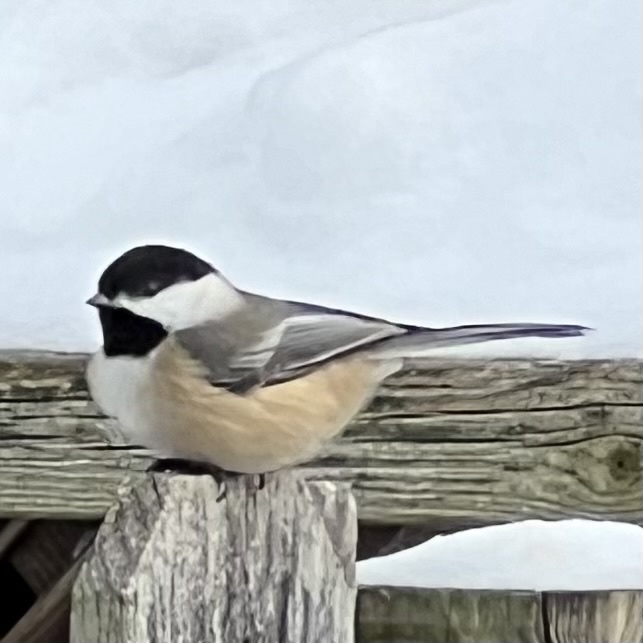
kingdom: Animalia
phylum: Chordata
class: Aves
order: Passeriformes
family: Paridae
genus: Poecile
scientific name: Poecile atricapillus
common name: Black-capped chickadee
